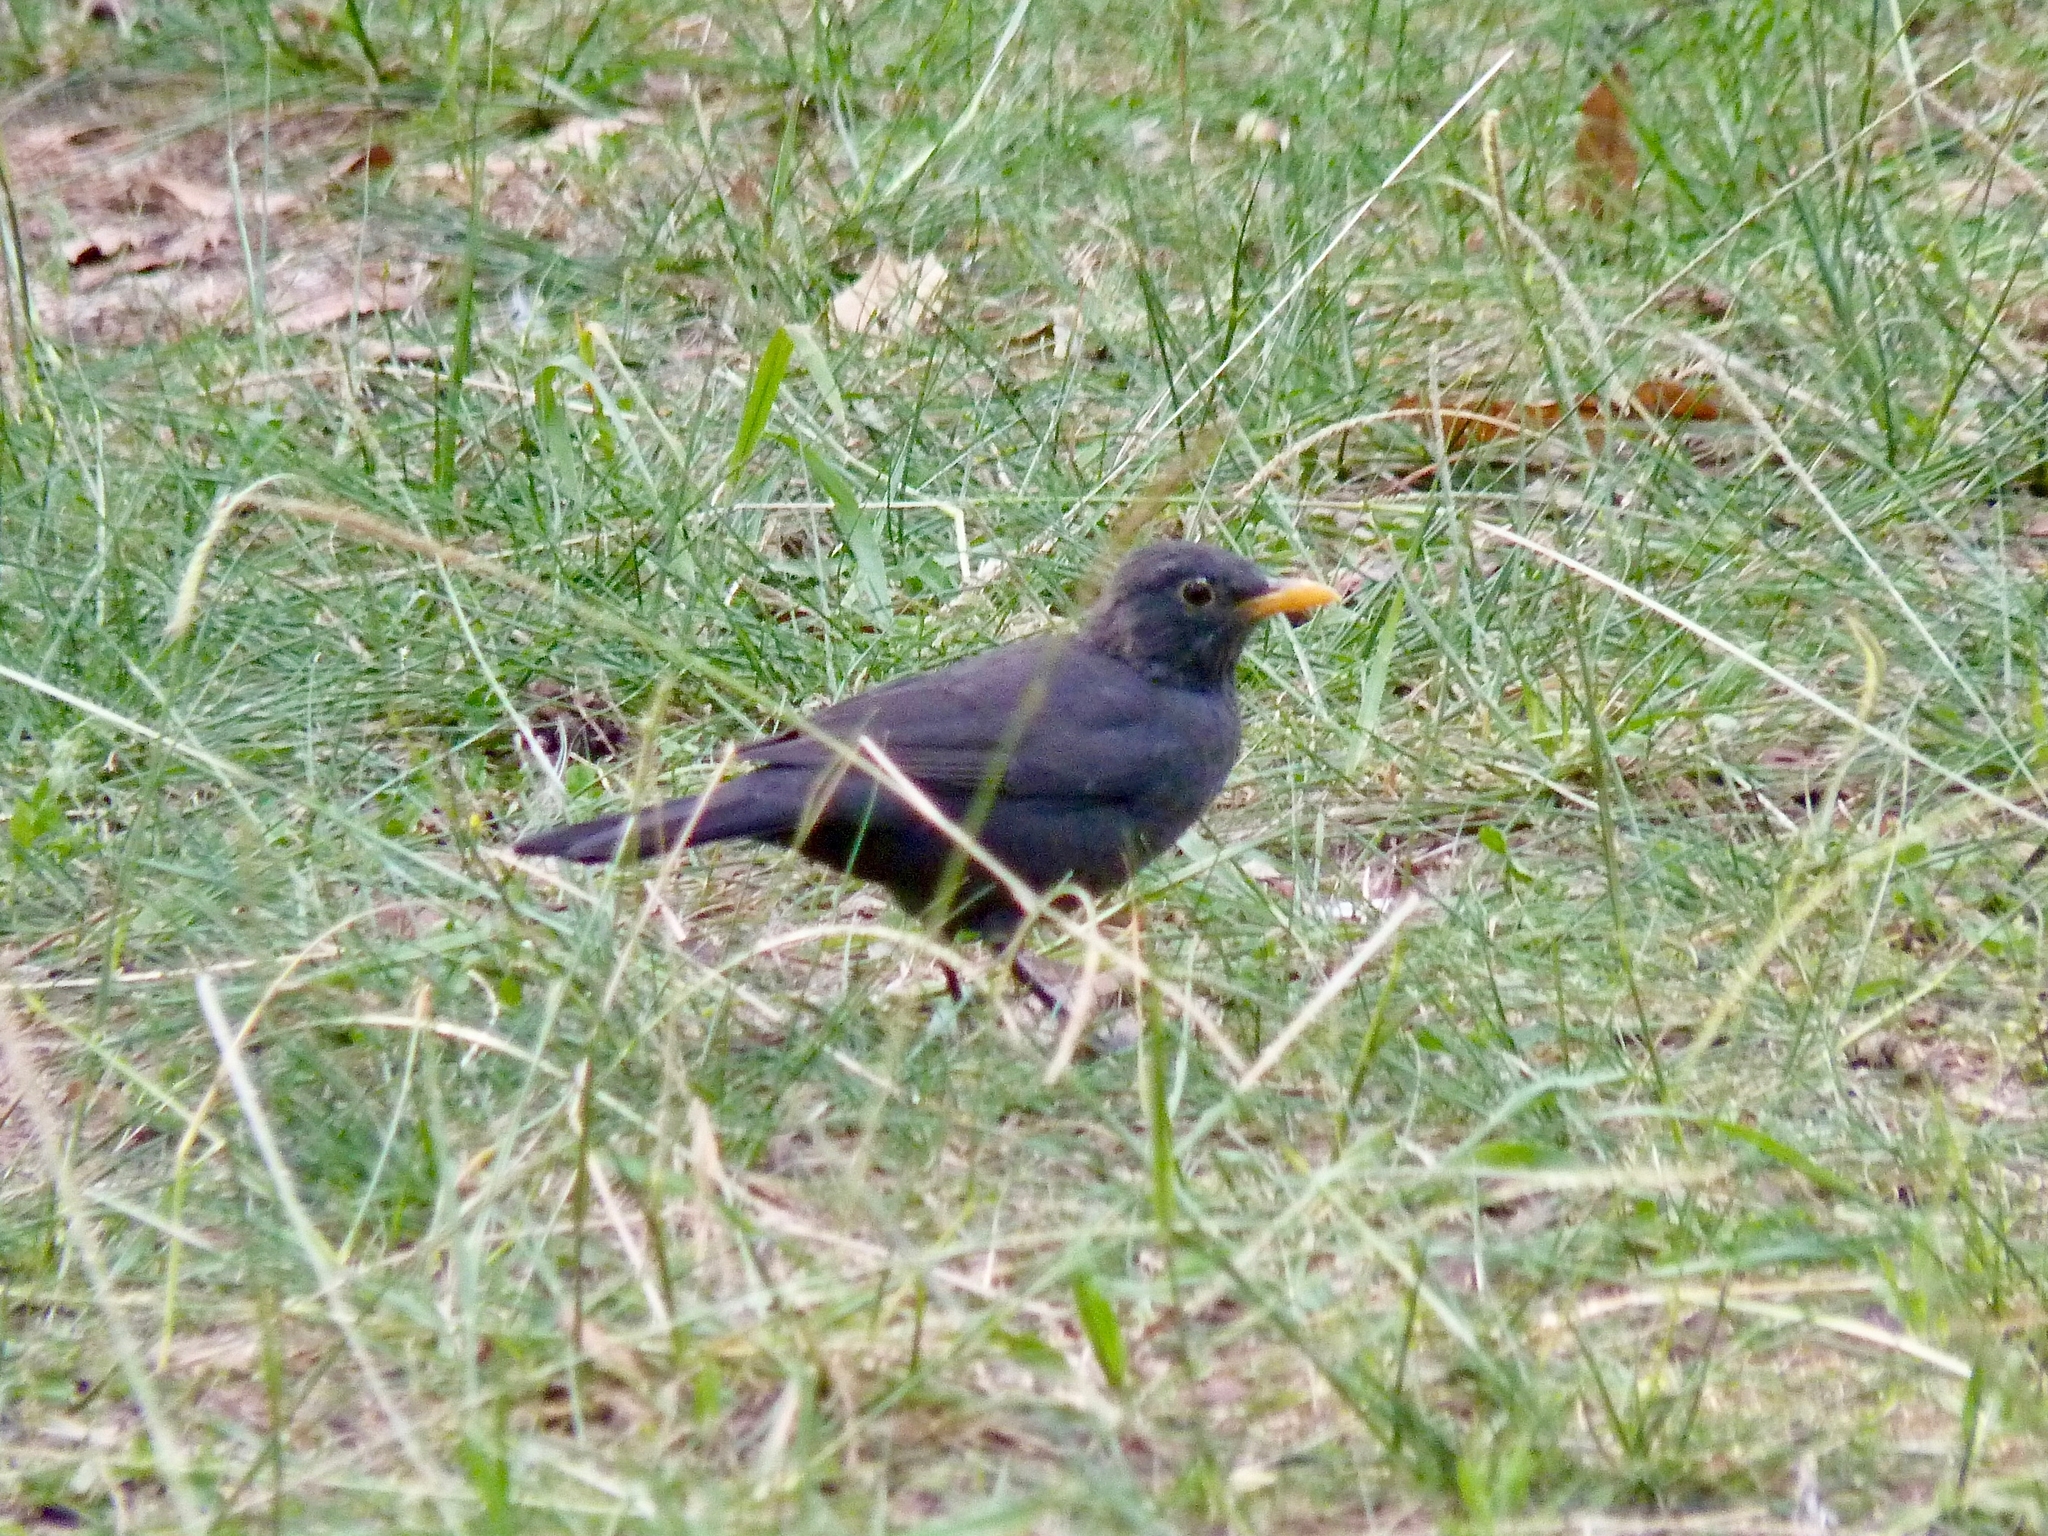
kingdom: Animalia
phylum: Chordata
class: Aves
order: Passeriformes
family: Turdidae
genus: Turdus
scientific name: Turdus merula
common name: Common blackbird
